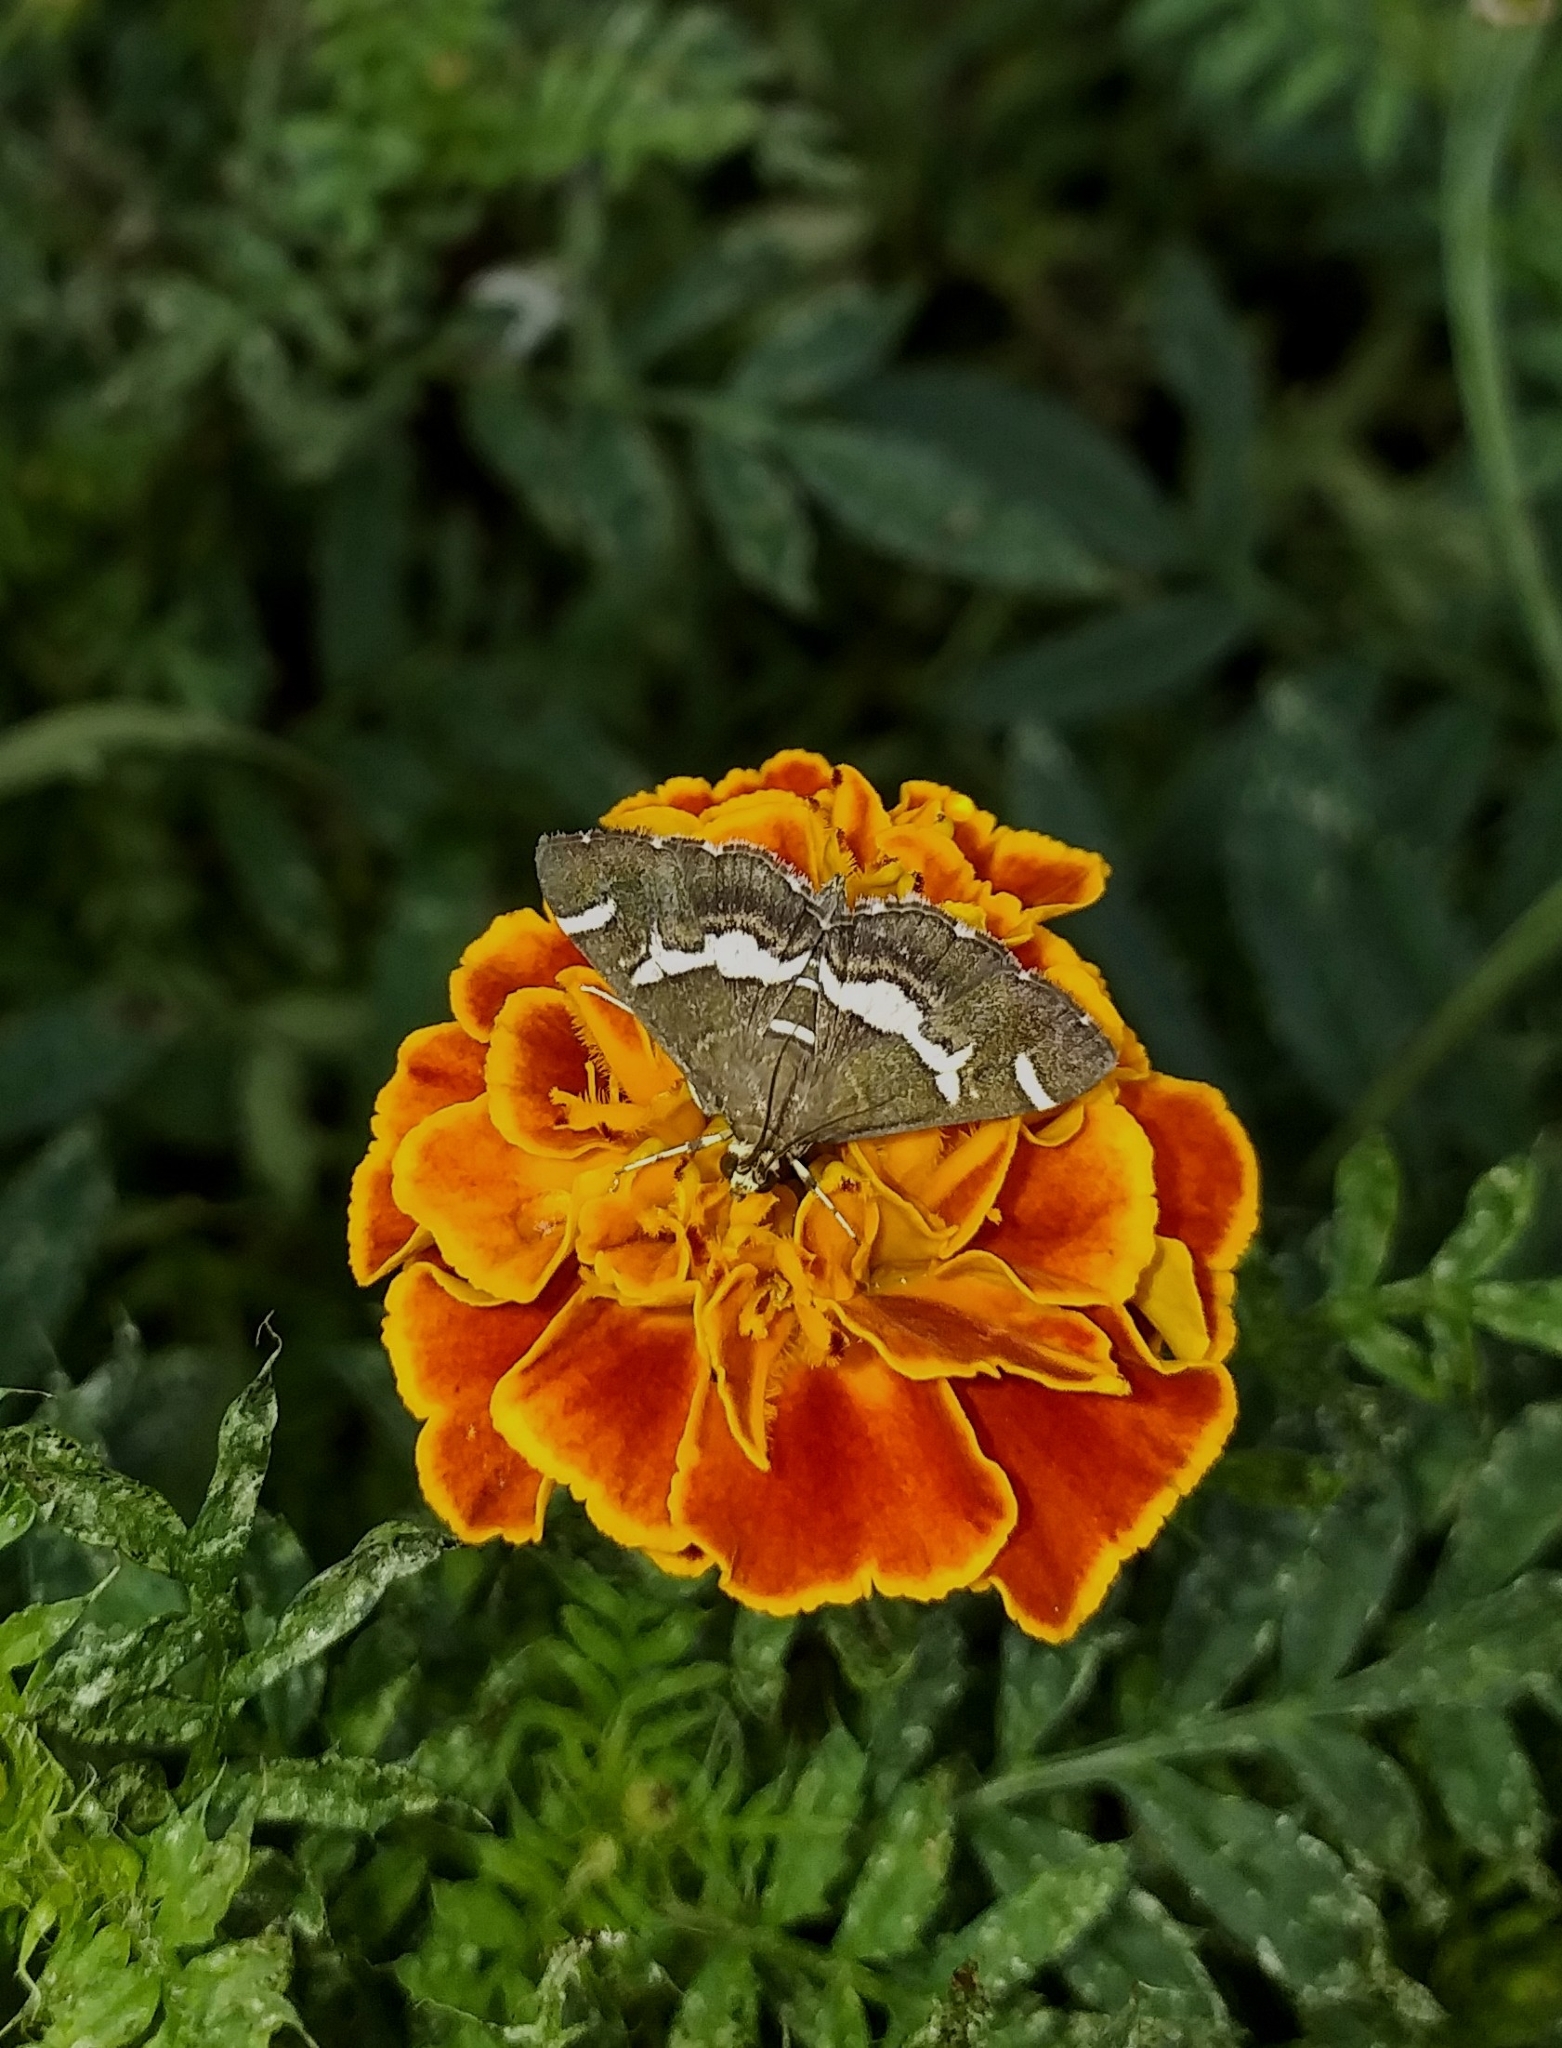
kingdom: Animalia
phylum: Arthropoda
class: Insecta
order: Lepidoptera
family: Crambidae
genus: Spoladea
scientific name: Spoladea recurvalis
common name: Beet webworm moth
